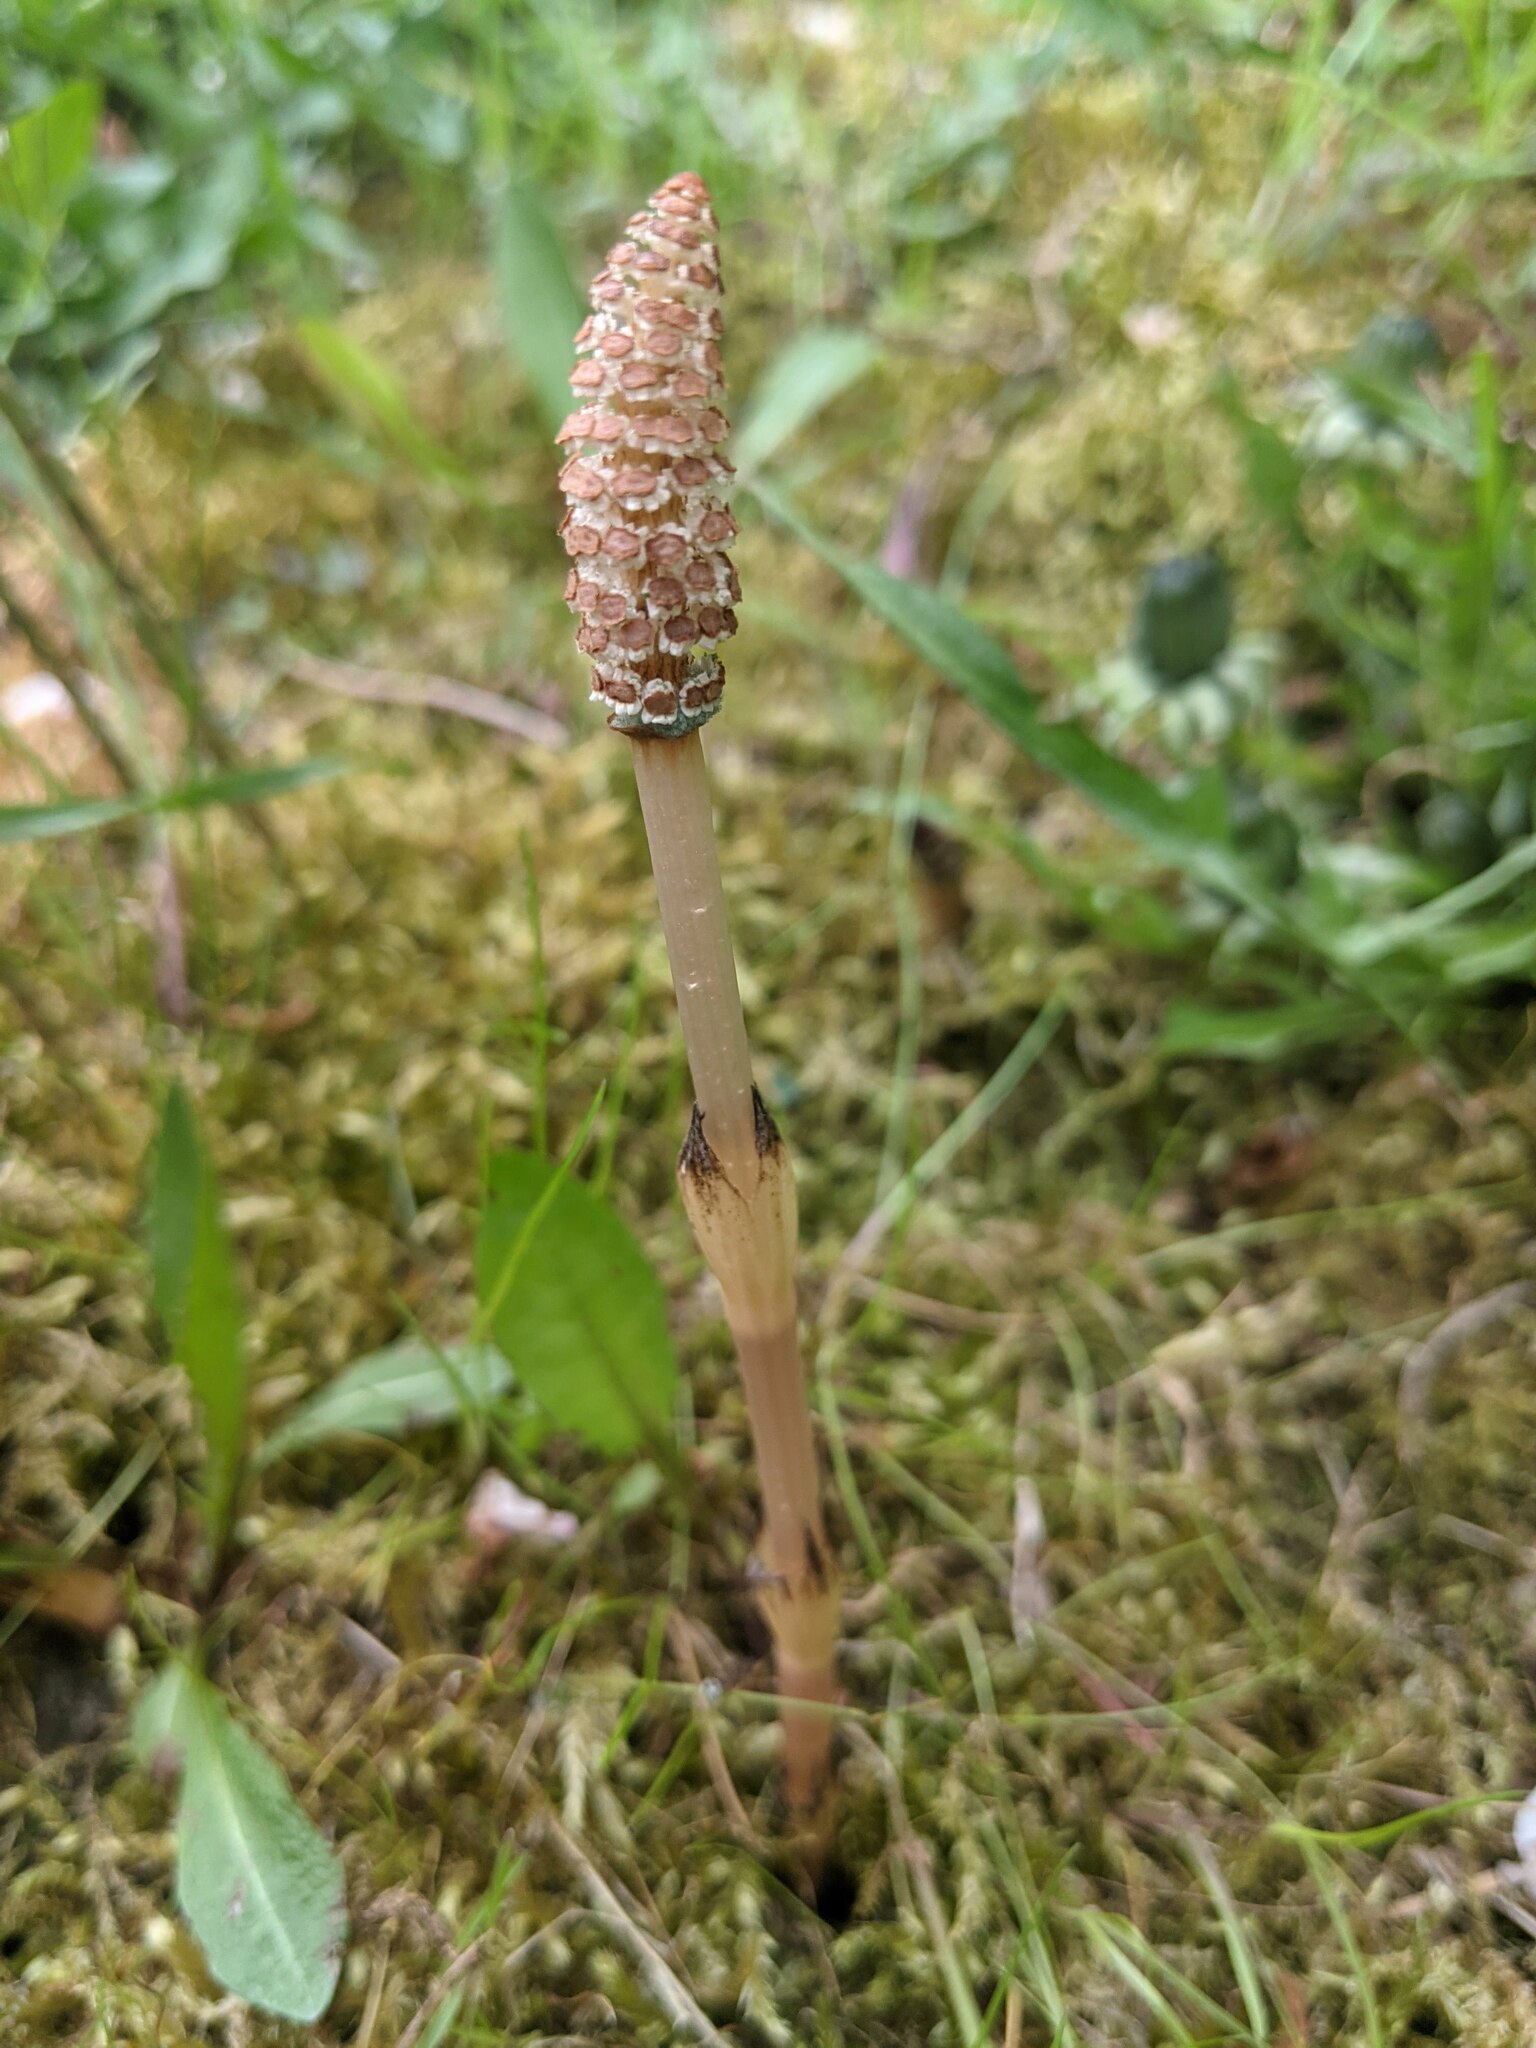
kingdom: Plantae
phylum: Tracheophyta
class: Polypodiopsida
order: Equisetales
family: Equisetaceae
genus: Equisetum
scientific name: Equisetum arvense
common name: Field horsetail
